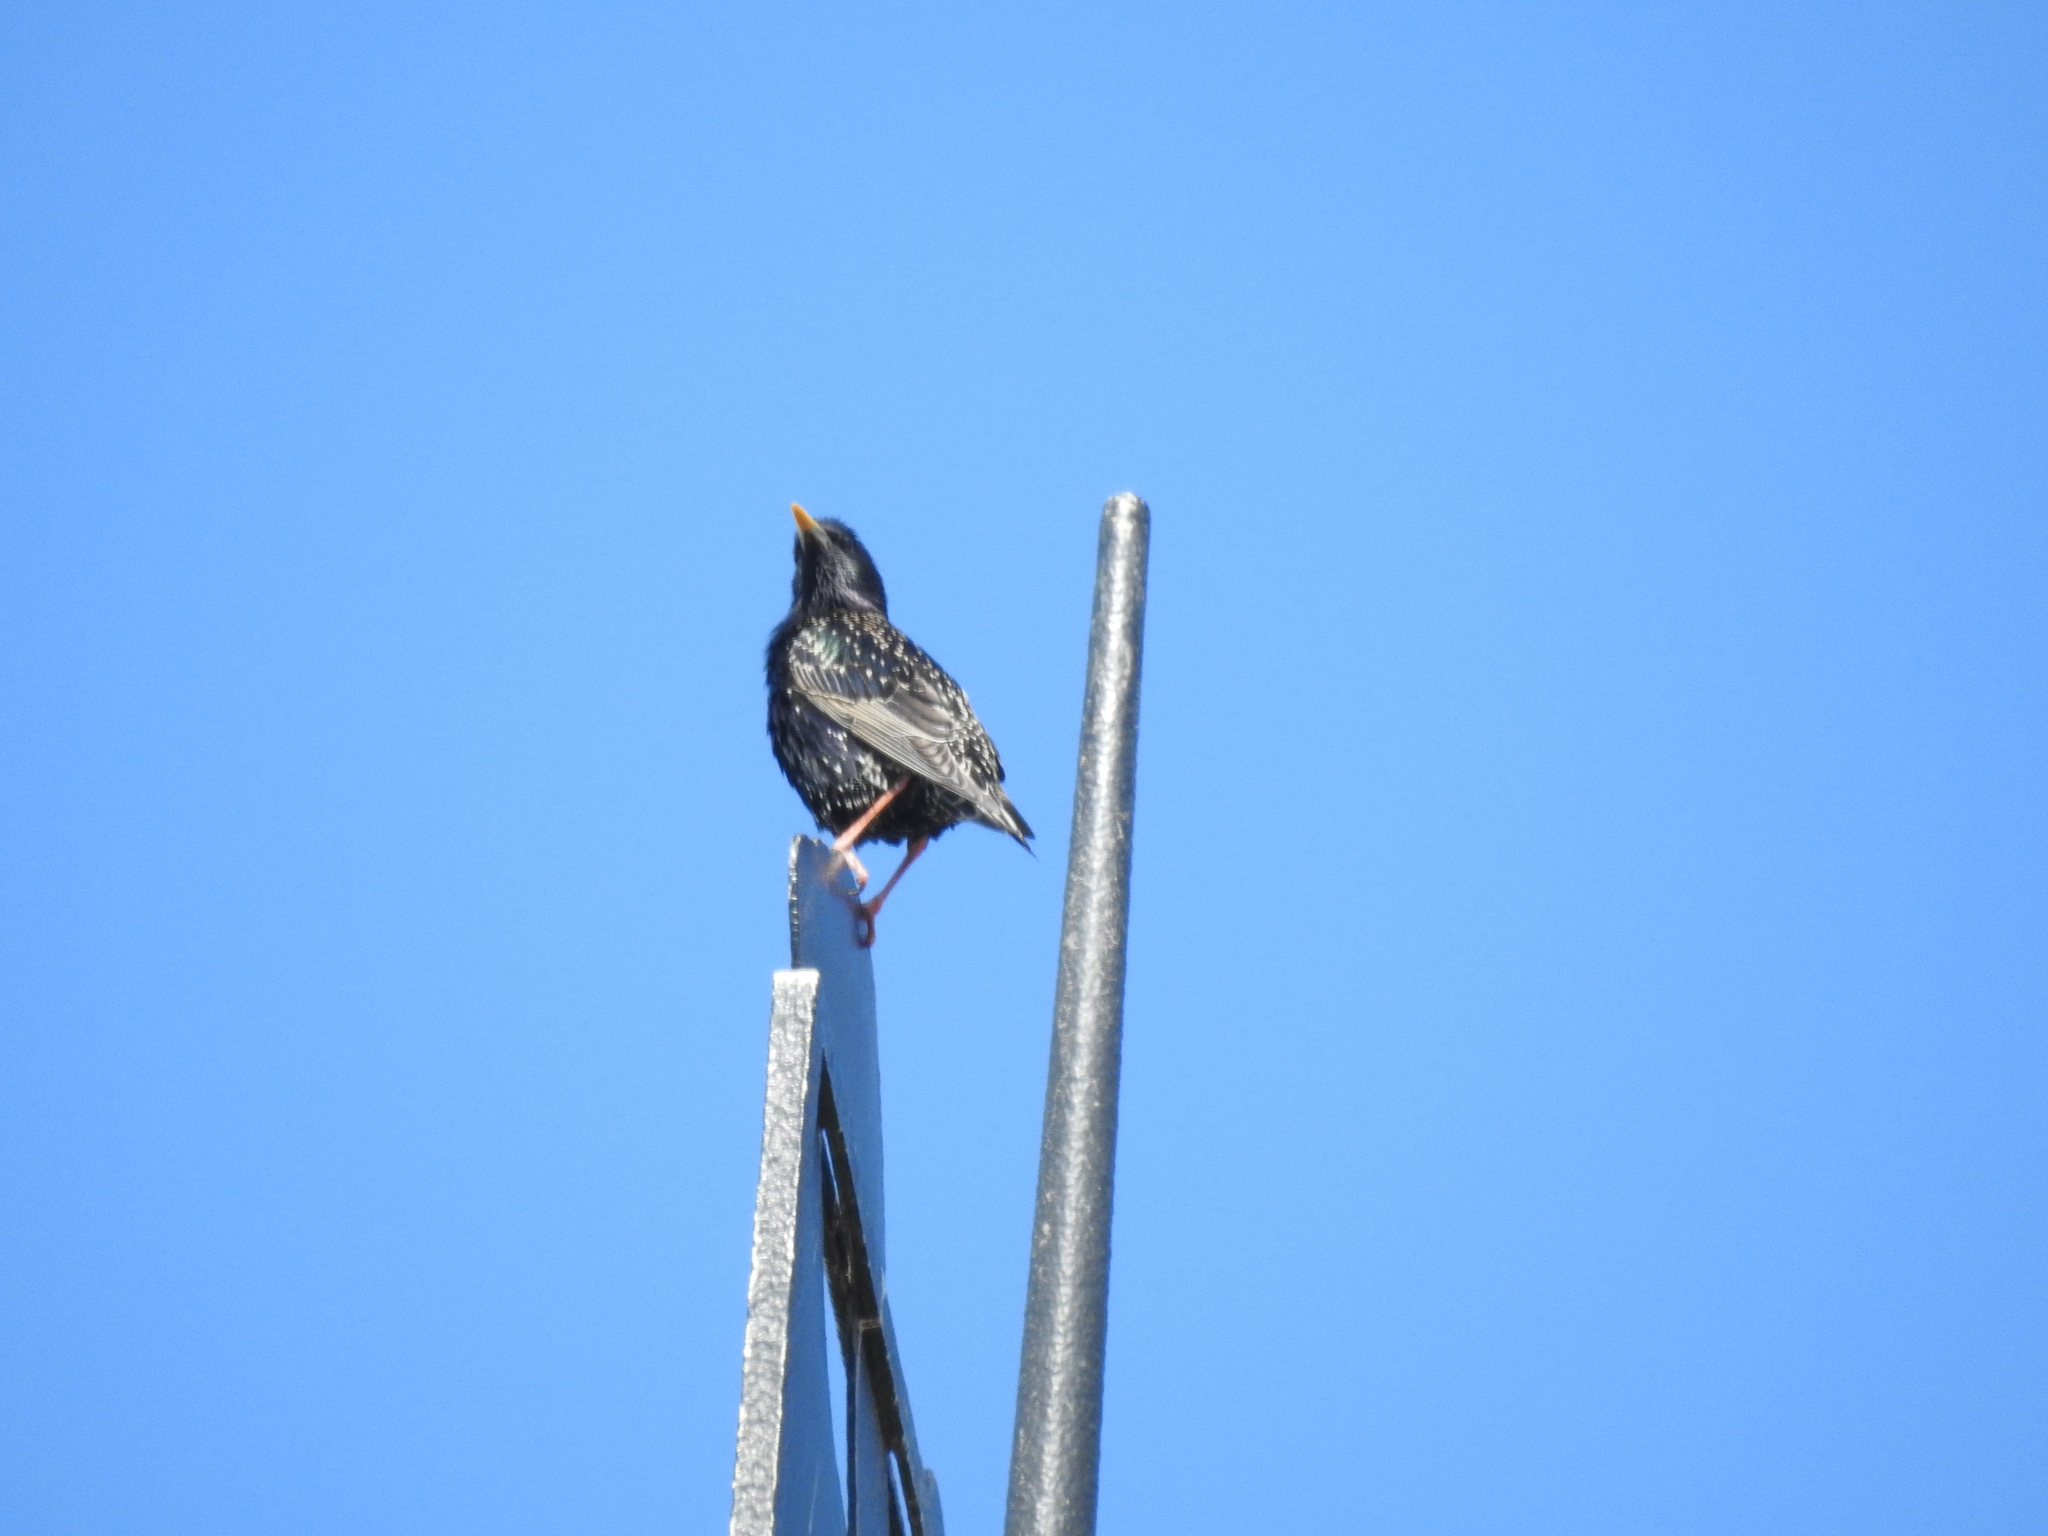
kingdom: Animalia
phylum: Chordata
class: Aves
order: Passeriformes
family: Sturnidae
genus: Sturnus
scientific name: Sturnus vulgaris
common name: Common starling
